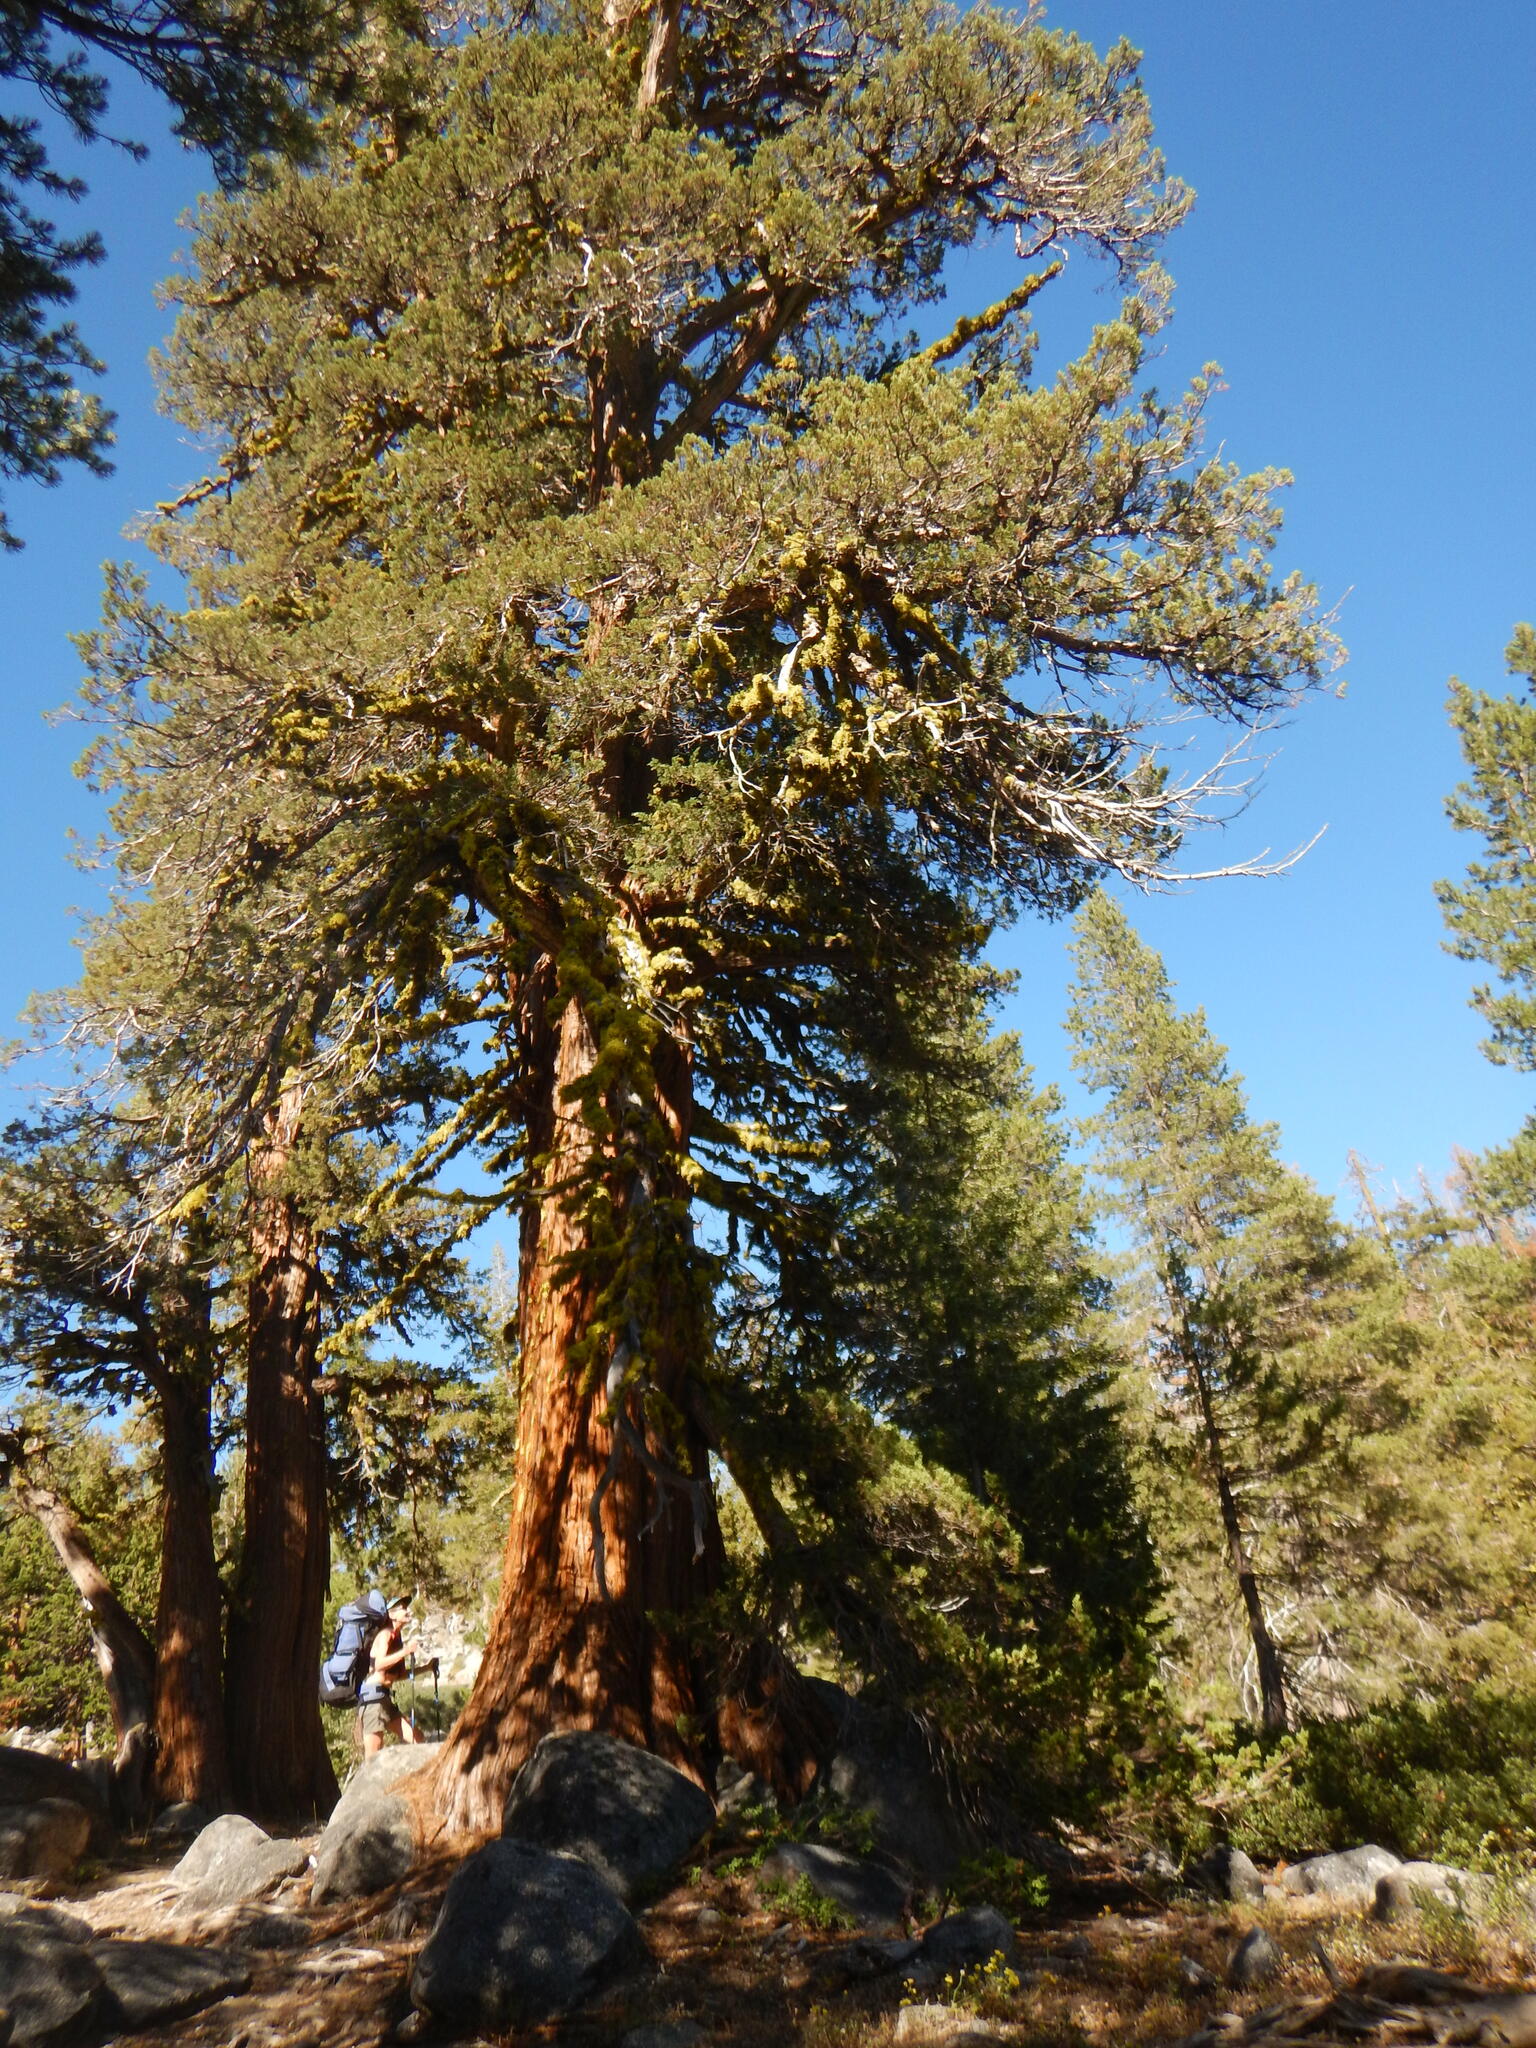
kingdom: Plantae
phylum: Tracheophyta
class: Pinopsida
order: Pinales
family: Cupressaceae
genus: Juniperus
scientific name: Juniperus occidentalis
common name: Western juniper
